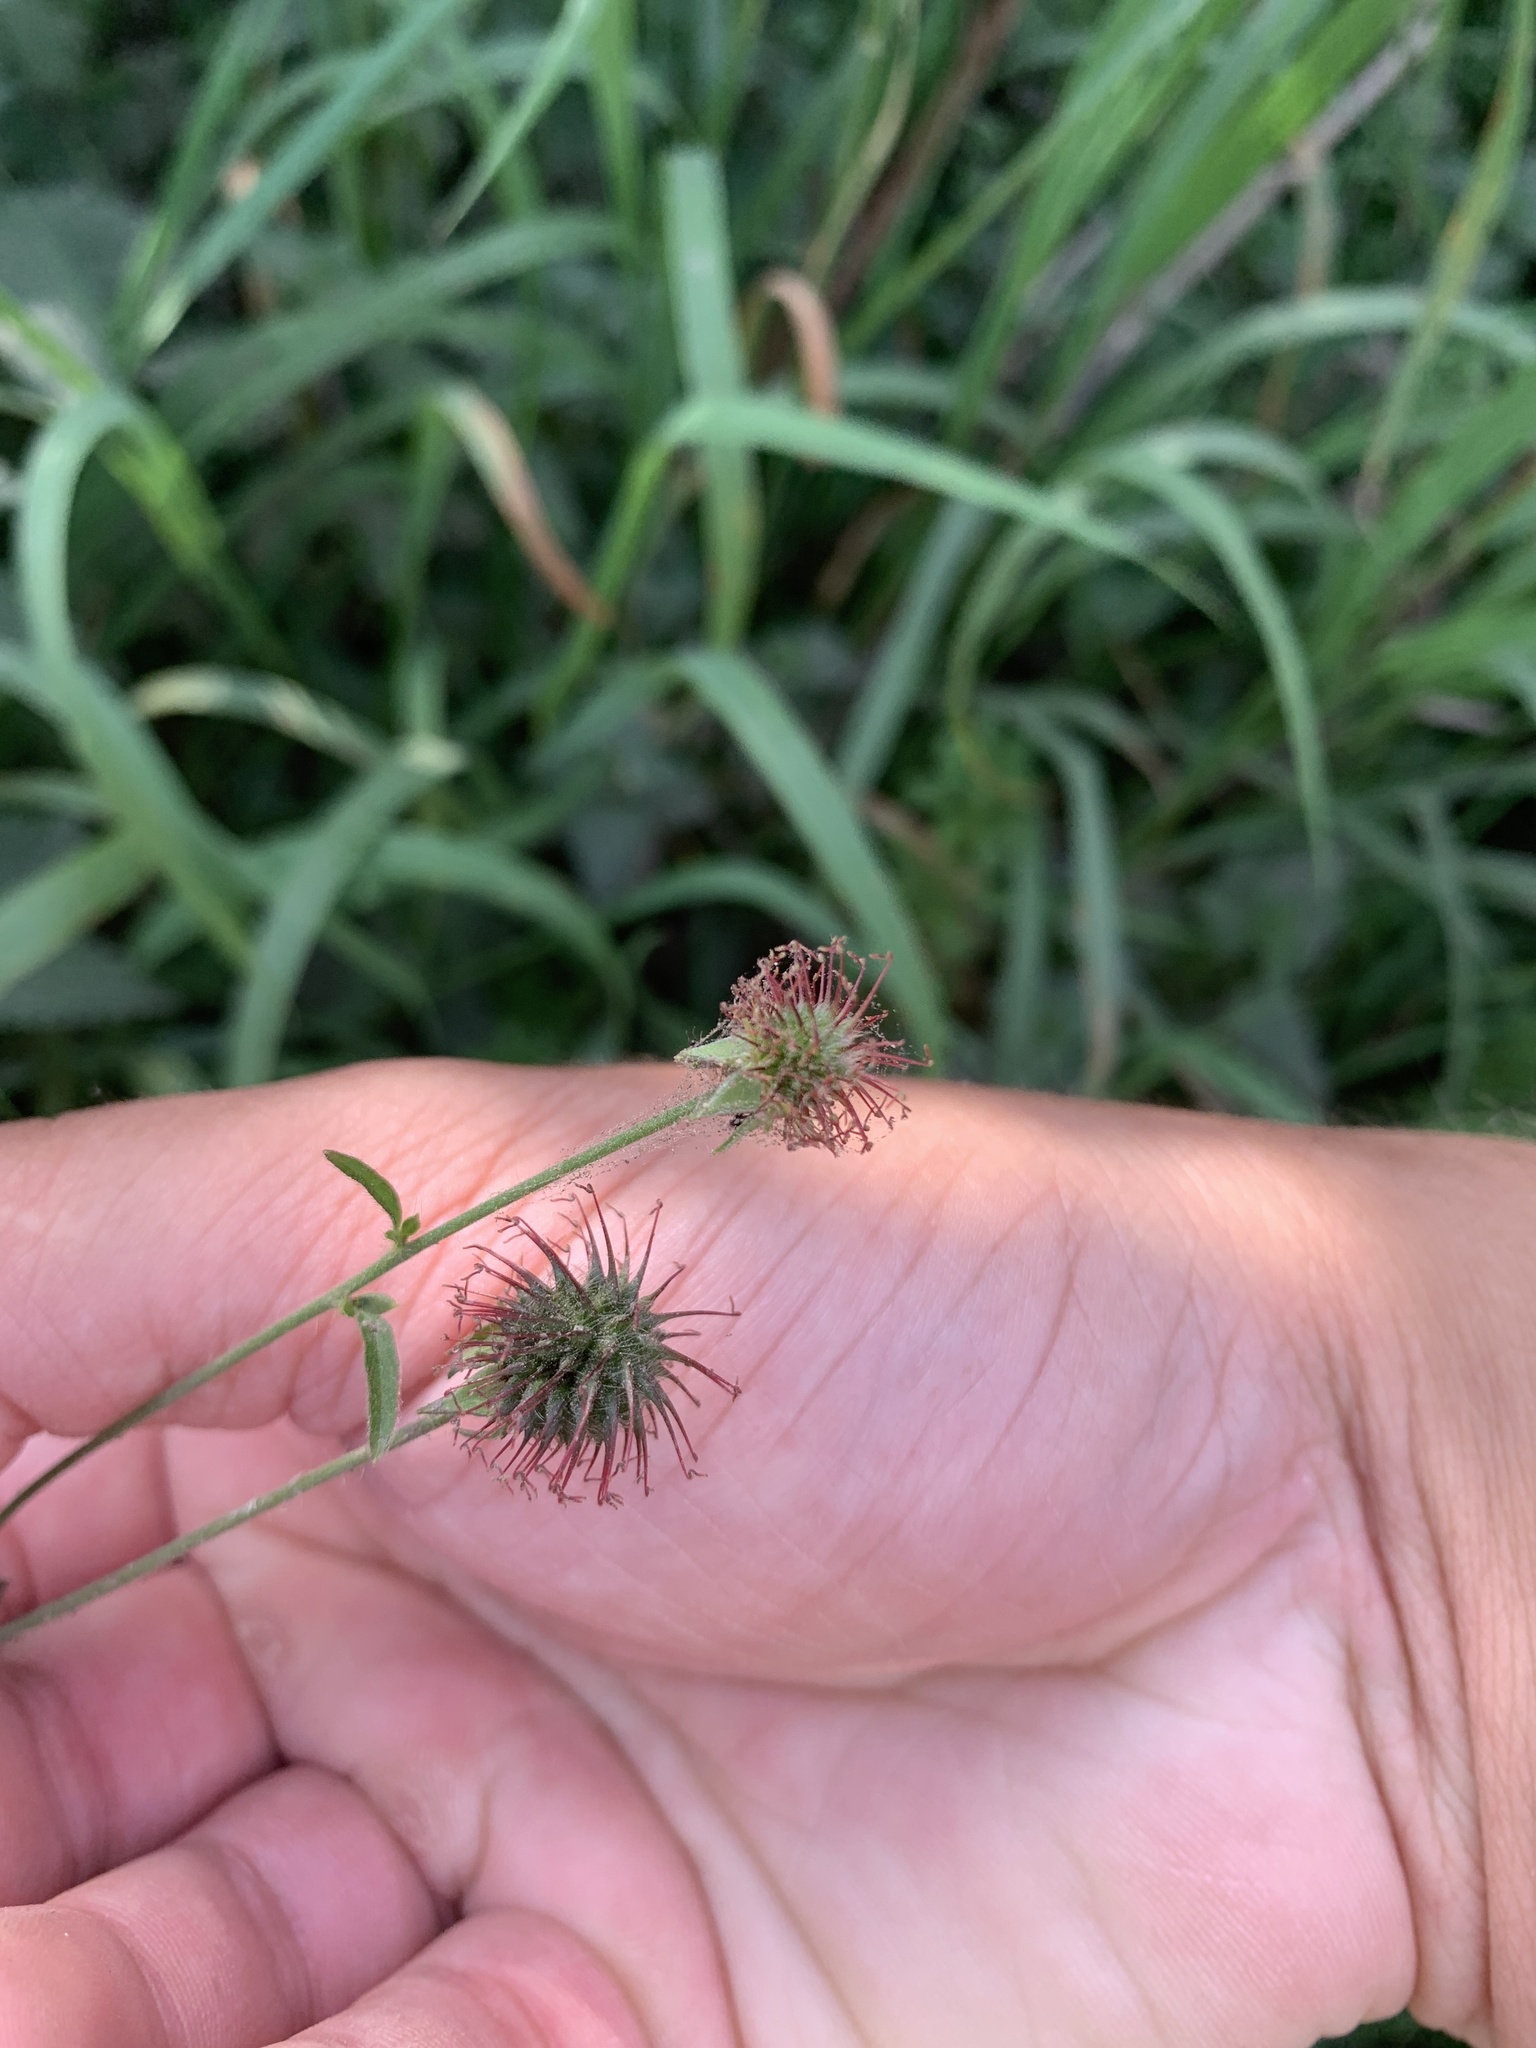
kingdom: Plantae
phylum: Tracheophyta
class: Magnoliopsida
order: Rosales
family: Rosaceae
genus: Geum
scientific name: Geum urbanum
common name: Wood avens
